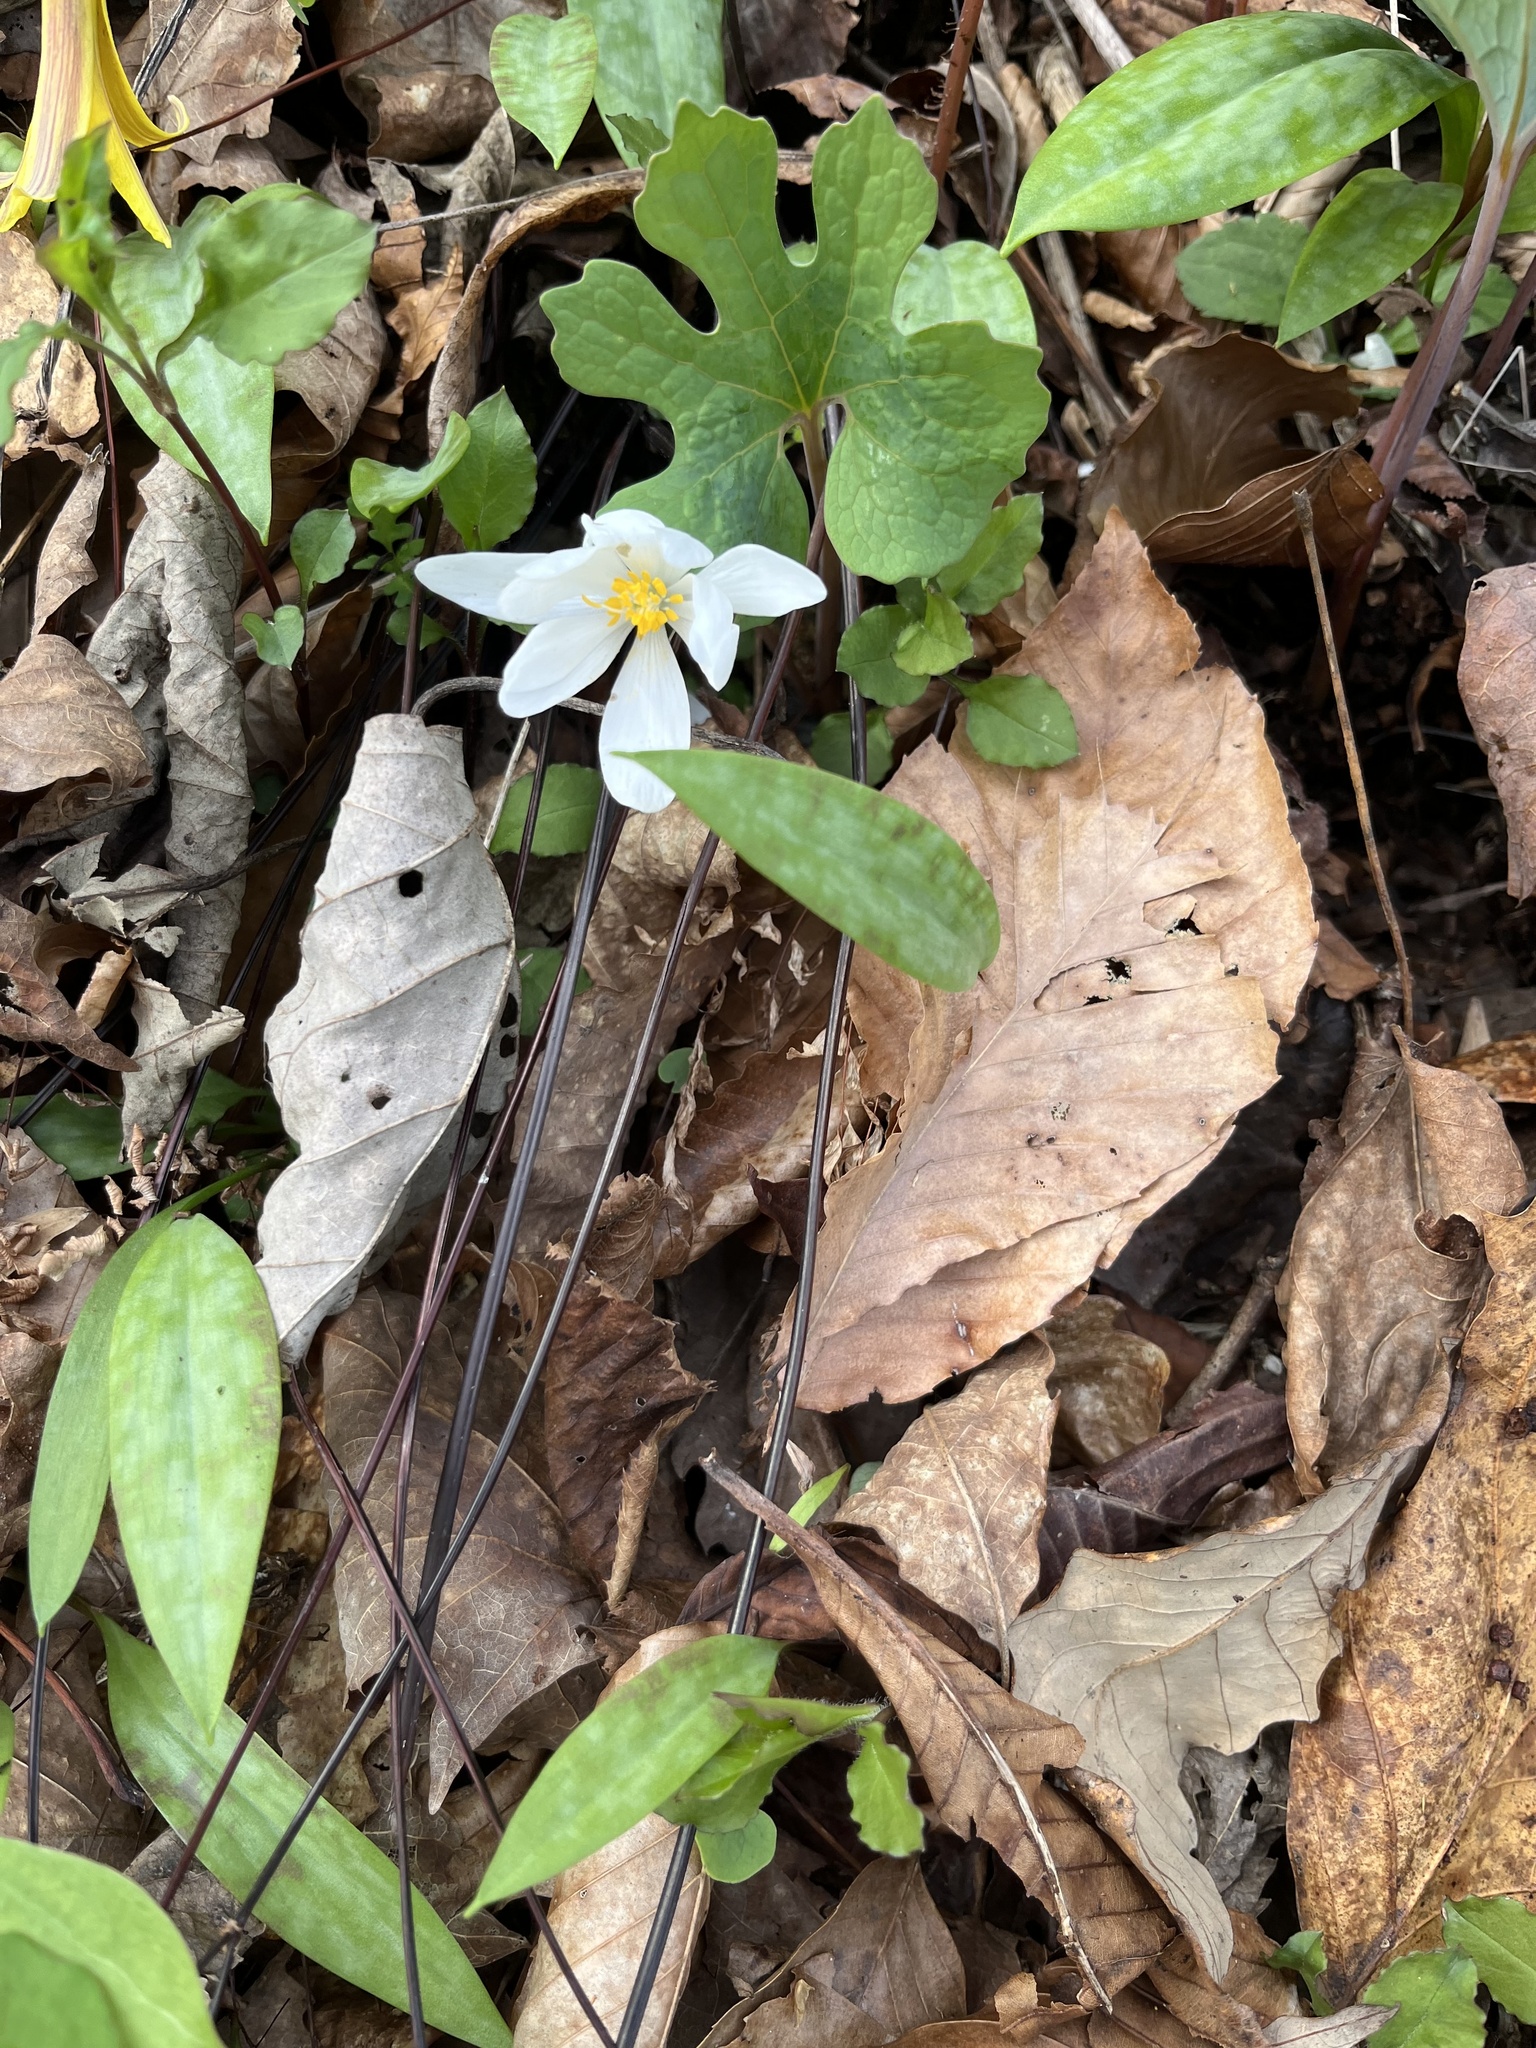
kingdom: Plantae
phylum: Tracheophyta
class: Magnoliopsida
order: Ranunculales
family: Papaveraceae
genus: Sanguinaria
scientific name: Sanguinaria canadensis
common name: Bloodroot
